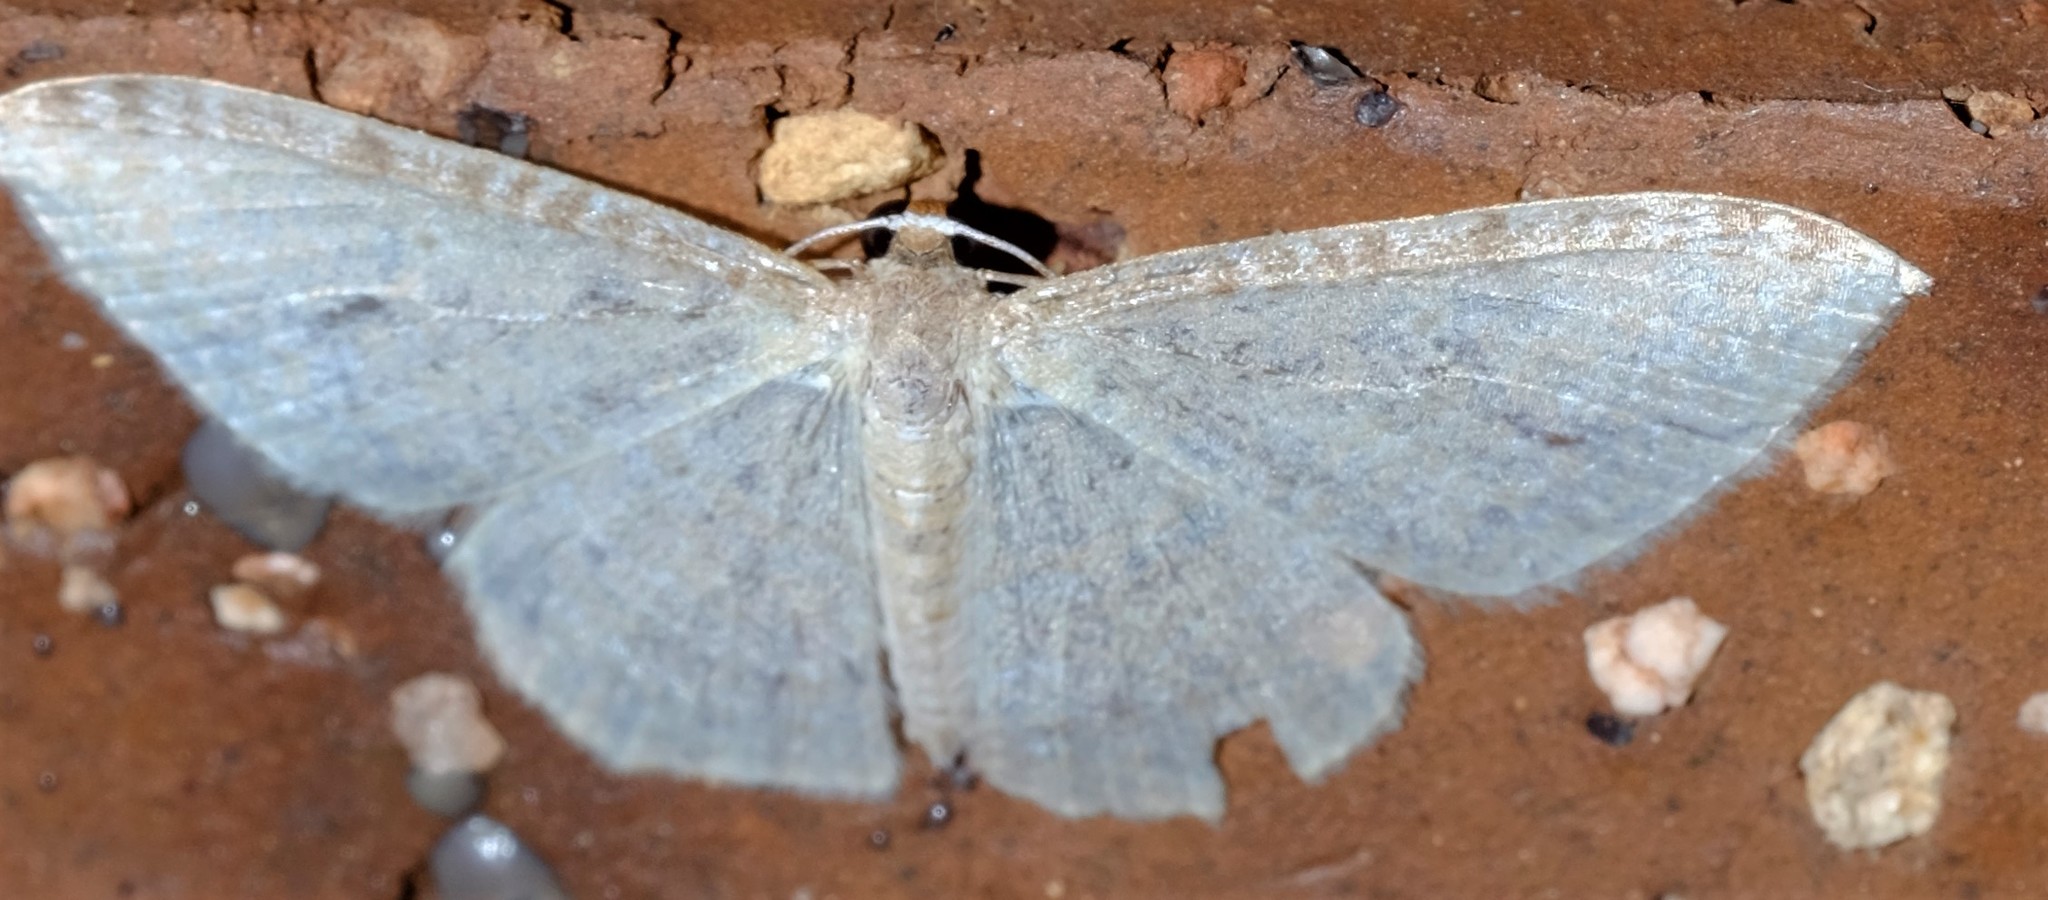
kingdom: Animalia
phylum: Arthropoda
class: Insecta
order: Lepidoptera
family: Geometridae
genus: Poecilasthena
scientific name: Poecilasthena
